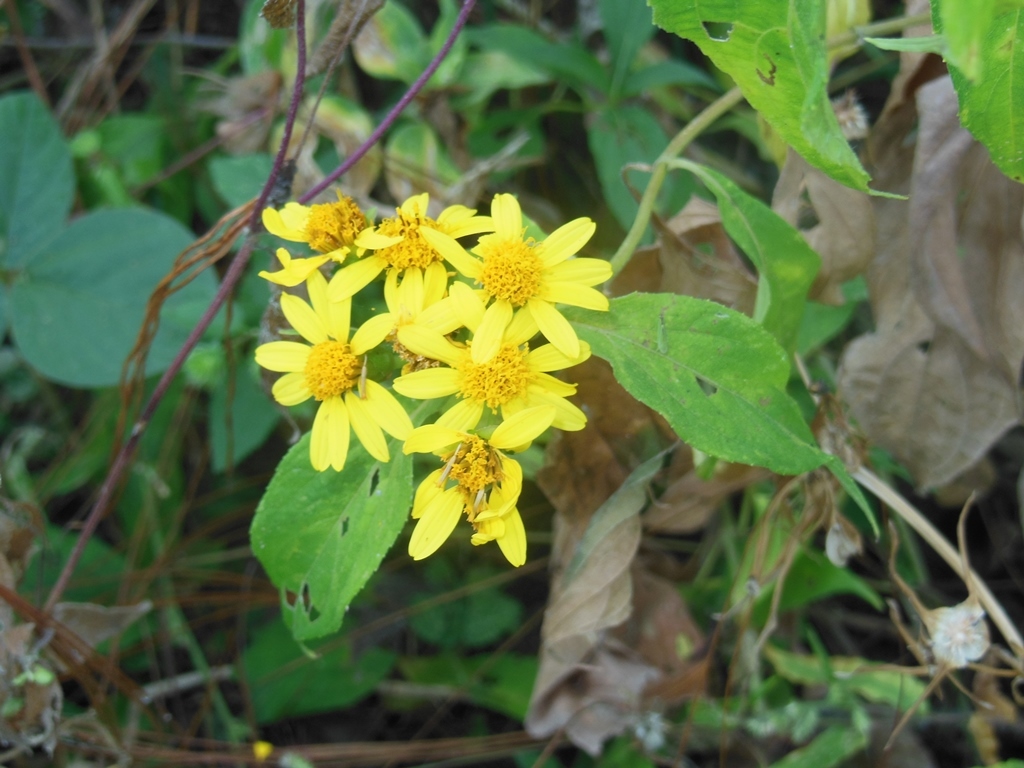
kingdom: Plantae
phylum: Tracheophyta
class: Magnoliopsida
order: Asterales
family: Asteraceae
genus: Lasianthaea
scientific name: Lasianthaea fruticosa
